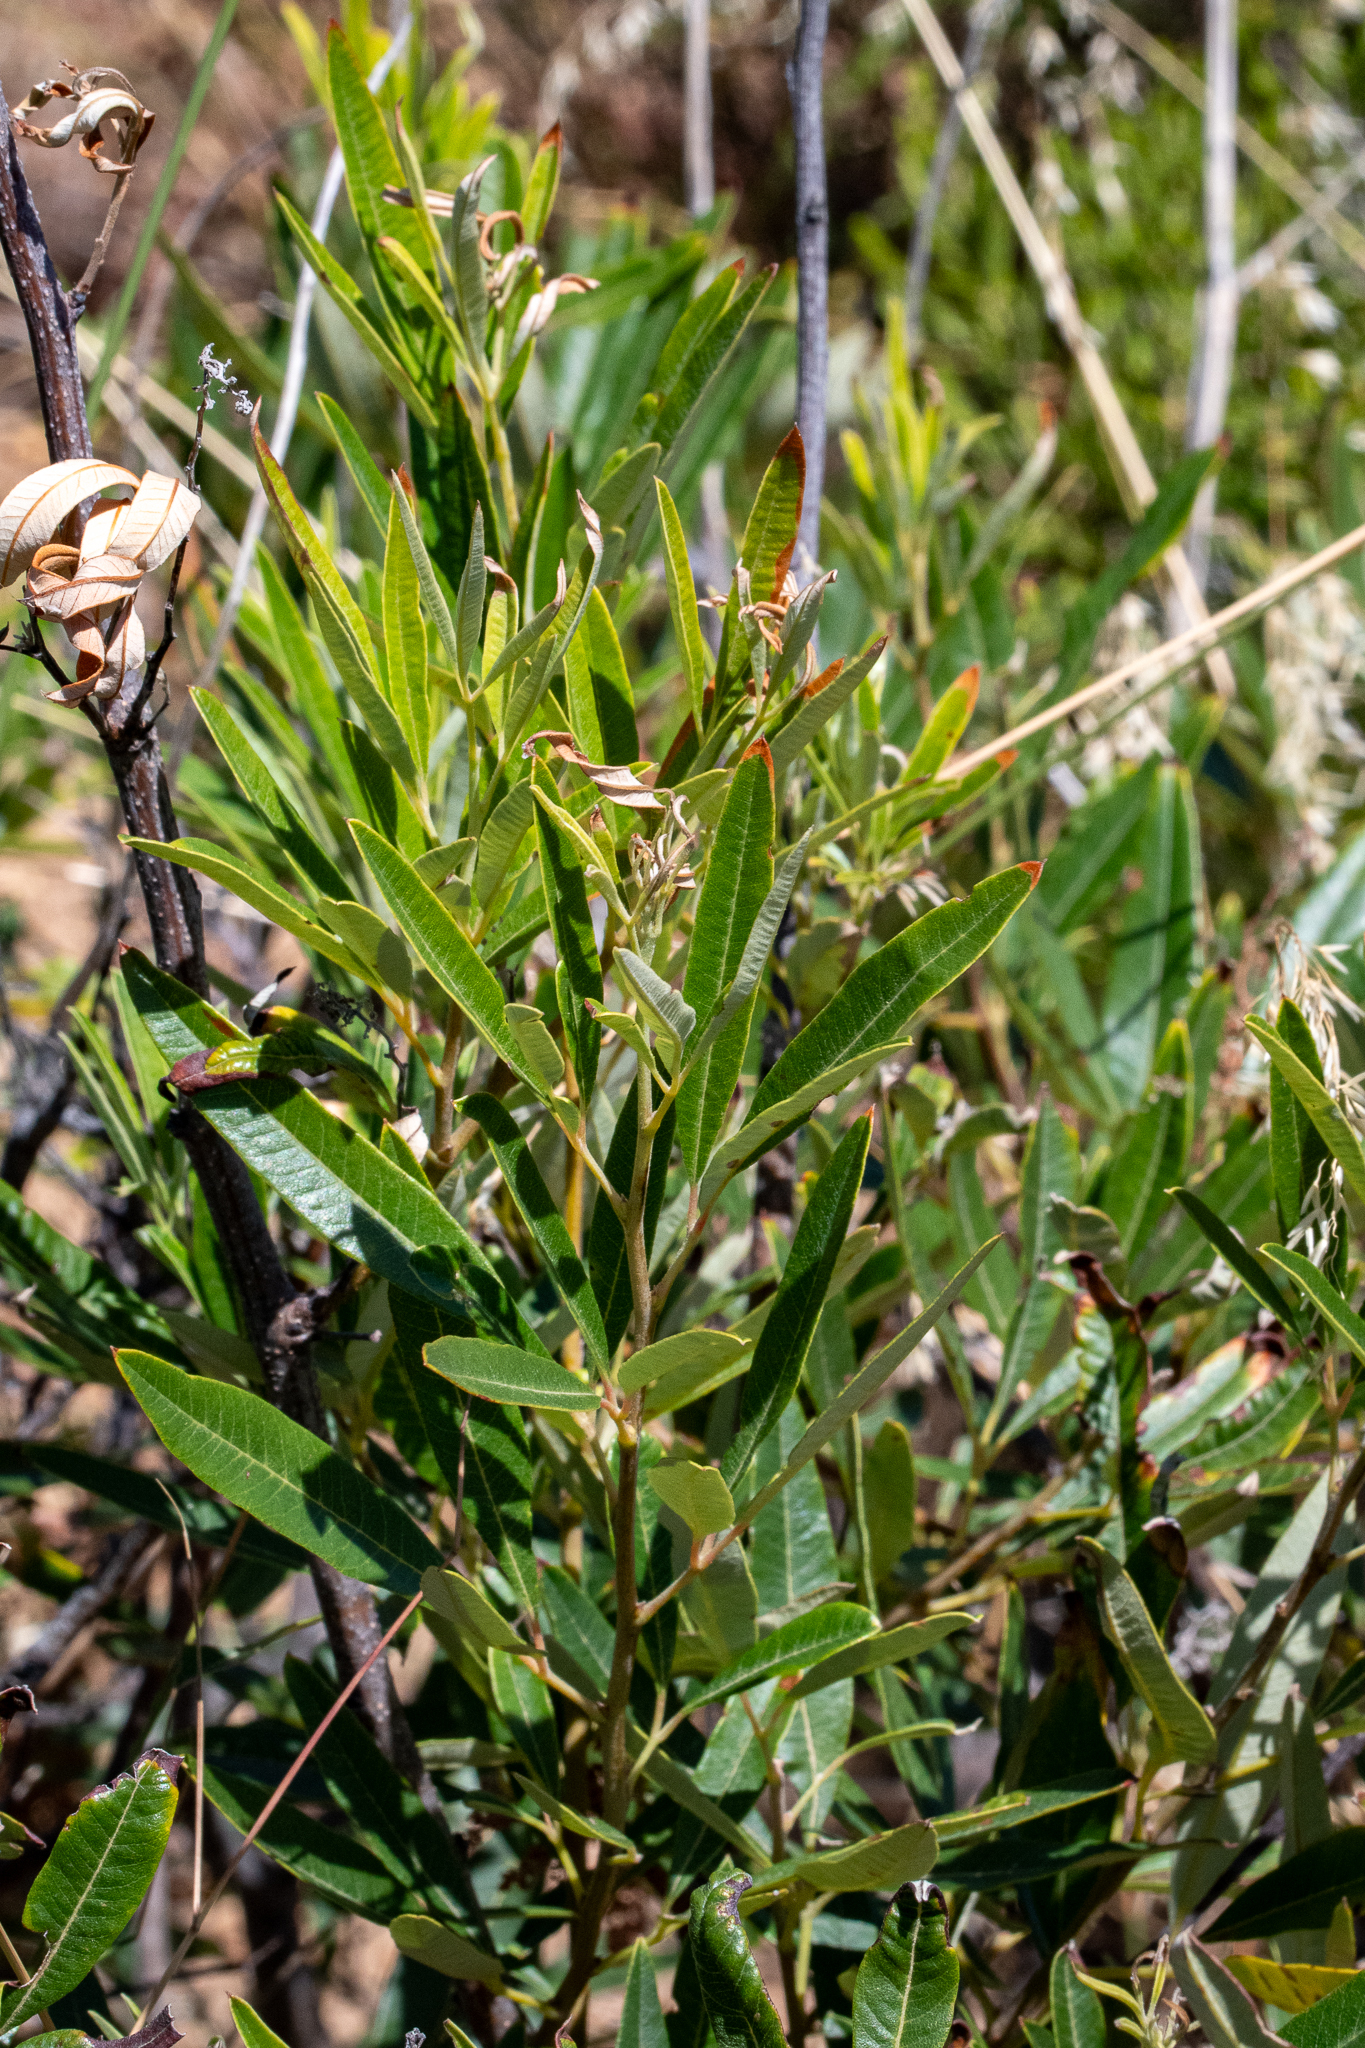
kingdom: Plantae
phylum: Tracheophyta
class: Magnoliopsida
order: Sapindales
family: Anacardiaceae
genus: Searsia
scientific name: Searsia angustifolia
